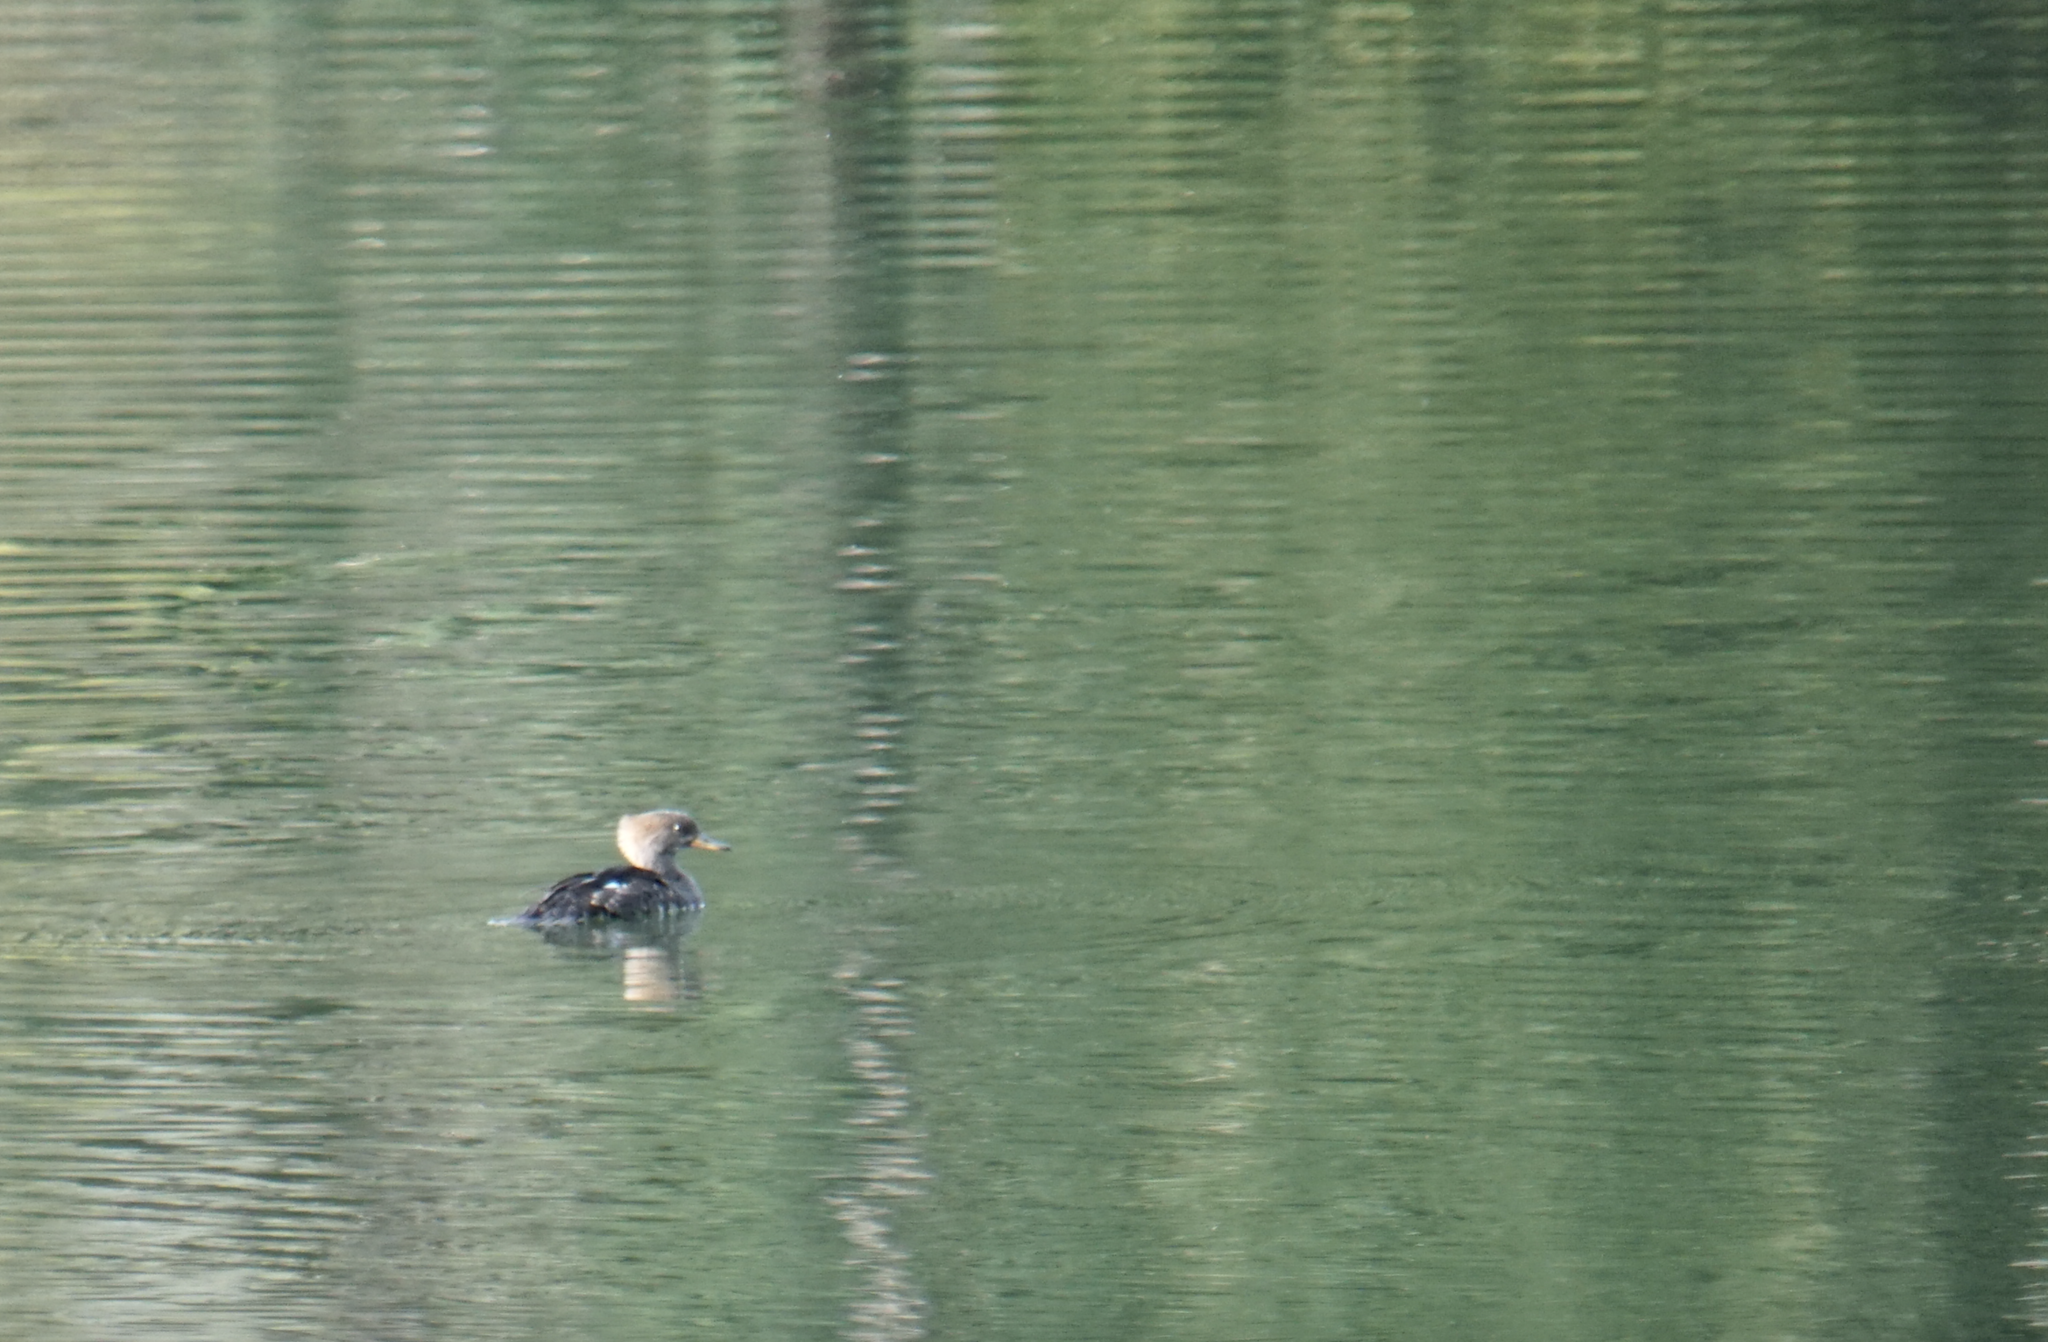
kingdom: Animalia
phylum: Chordata
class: Aves
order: Anseriformes
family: Anatidae
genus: Lophodytes
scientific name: Lophodytes cucullatus
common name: Hooded merganser
